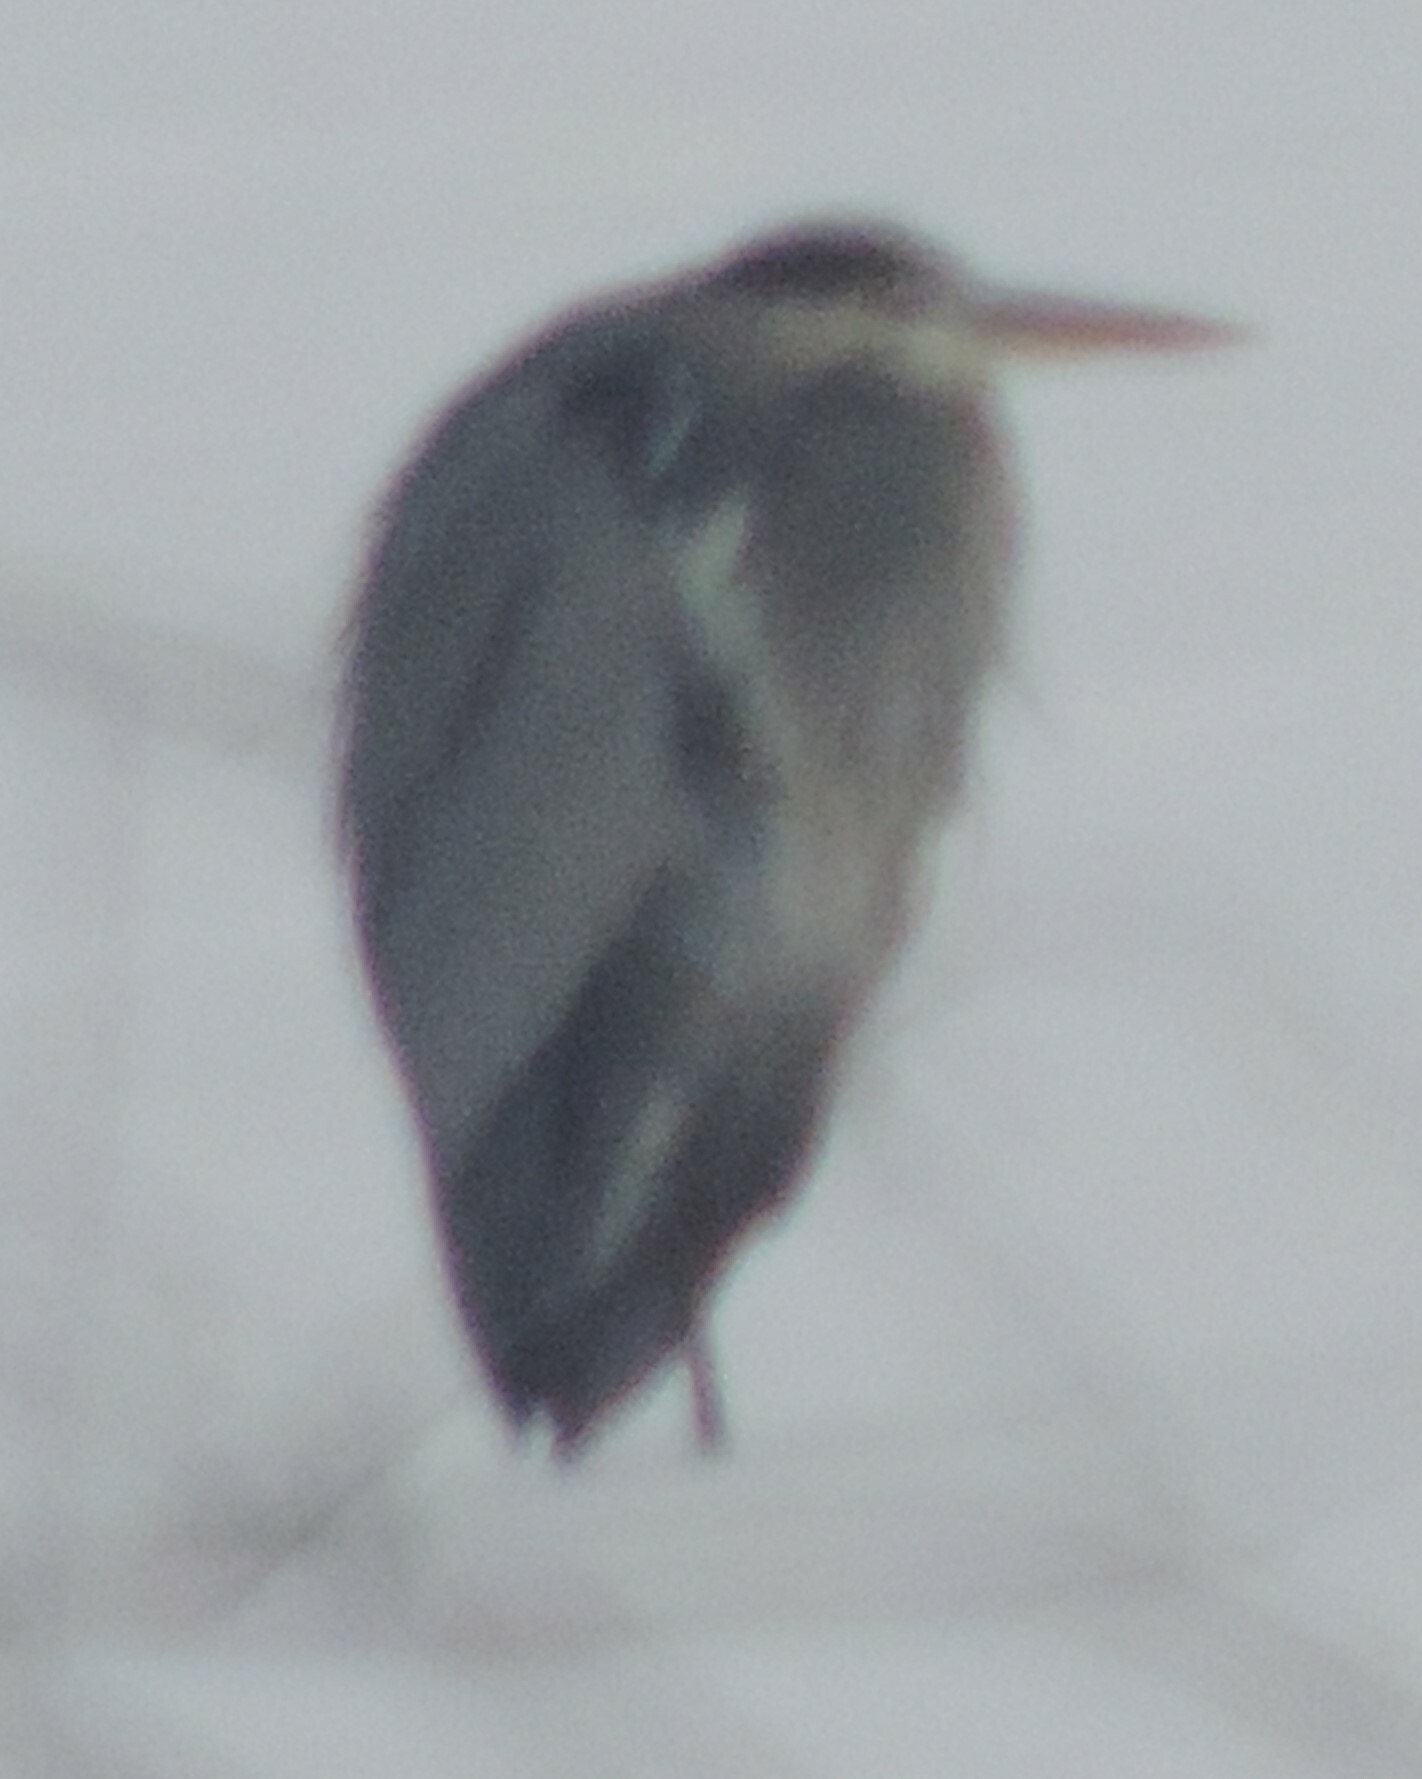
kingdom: Animalia
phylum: Chordata
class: Aves
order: Pelecaniformes
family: Ardeidae
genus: Ardea
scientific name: Ardea herodias
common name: Great blue heron
